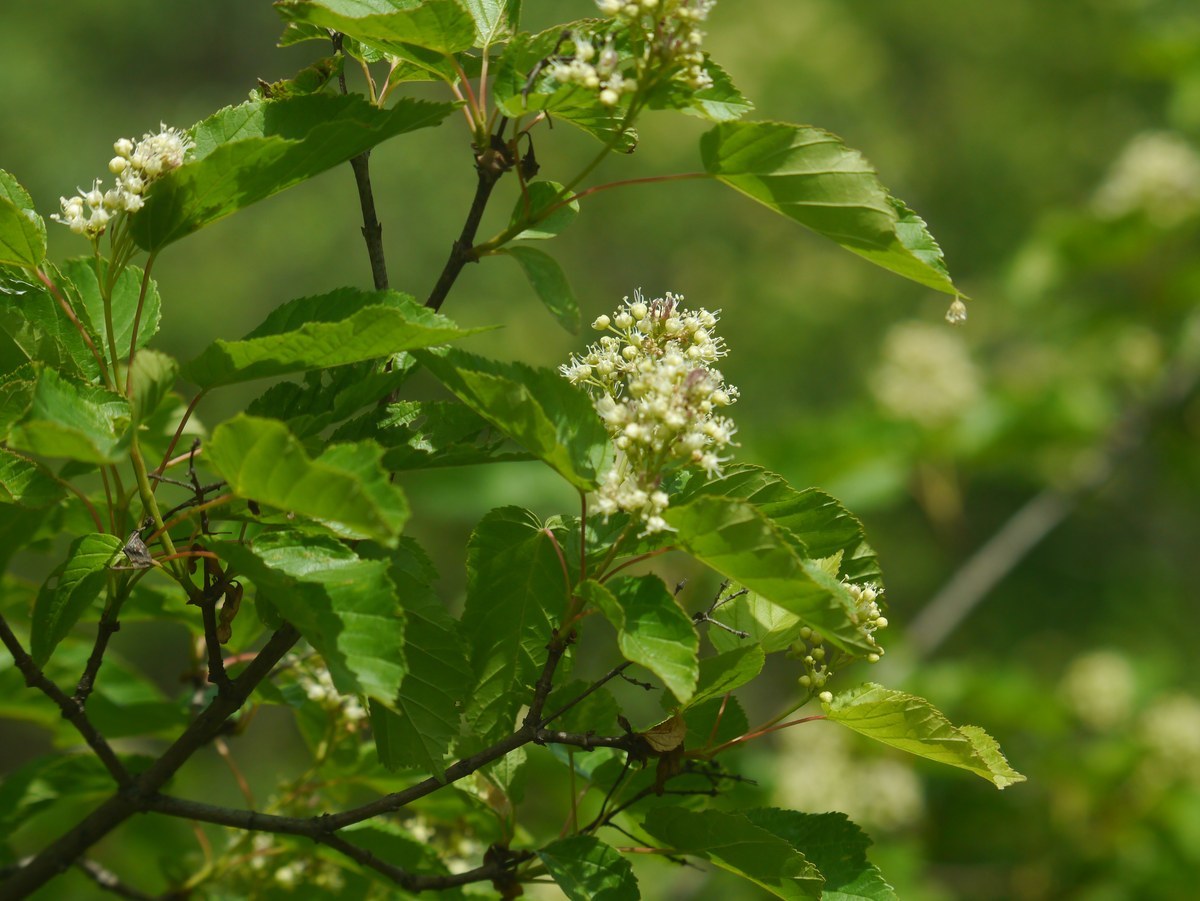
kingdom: Plantae
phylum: Tracheophyta
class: Magnoliopsida
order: Sapindales
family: Sapindaceae
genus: Acer
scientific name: Acer tataricum
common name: Tartar maple
